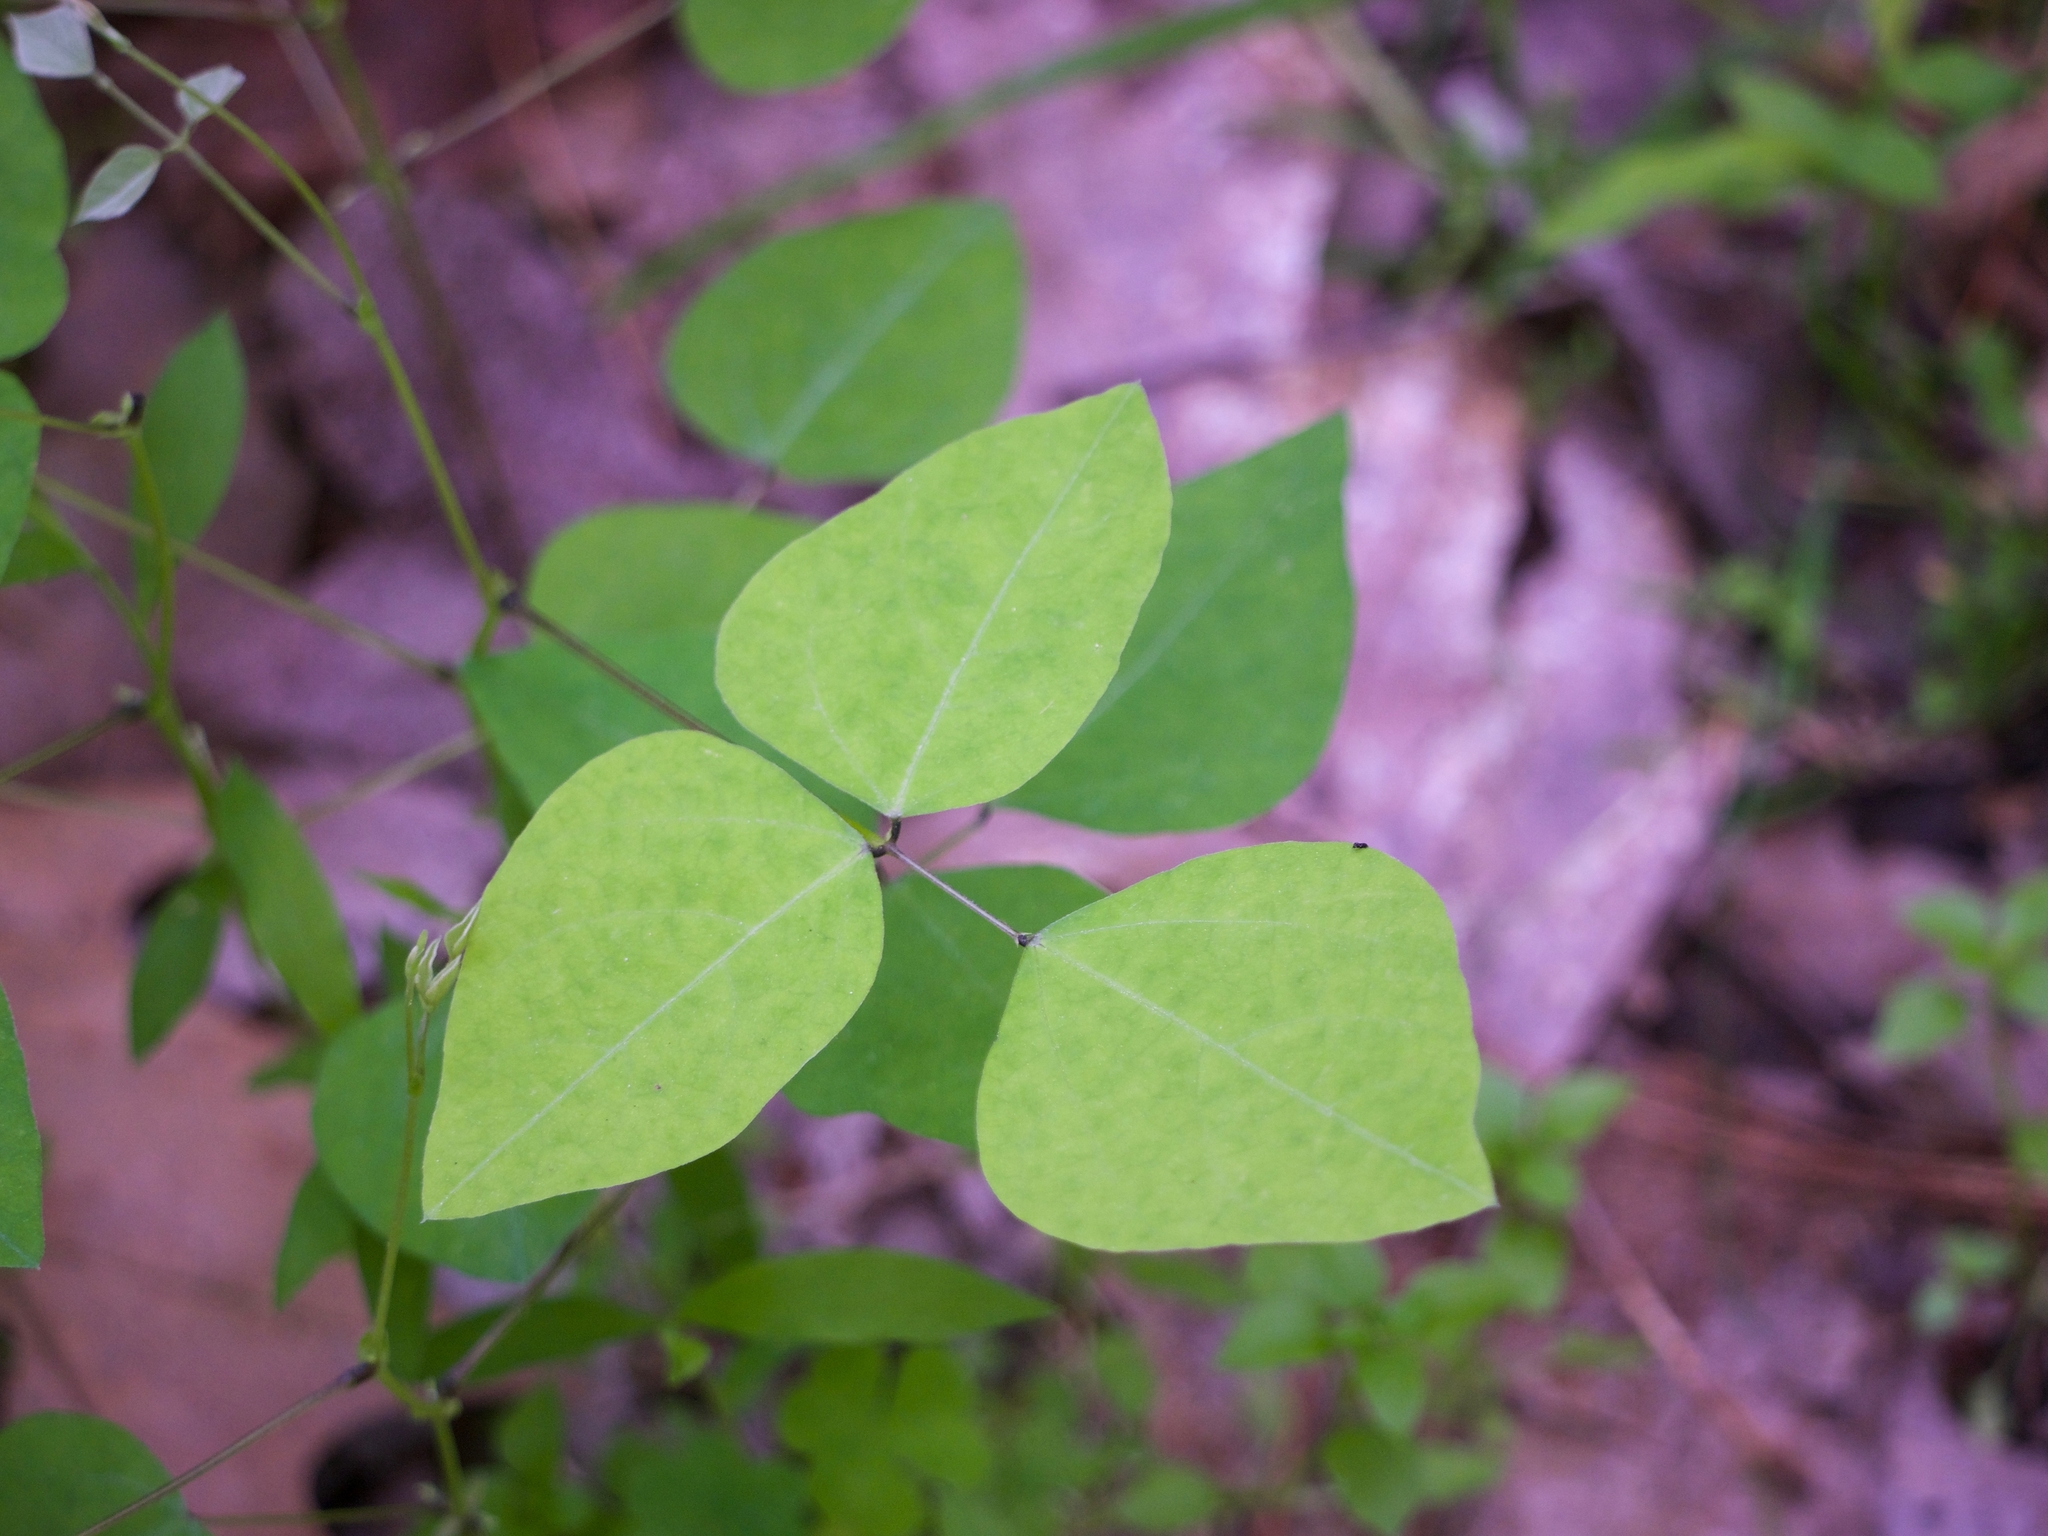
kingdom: Plantae
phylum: Tracheophyta
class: Magnoliopsida
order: Fabales
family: Fabaceae
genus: Amphicarpaea
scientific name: Amphicarpaea bracteata
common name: American hog peanut
